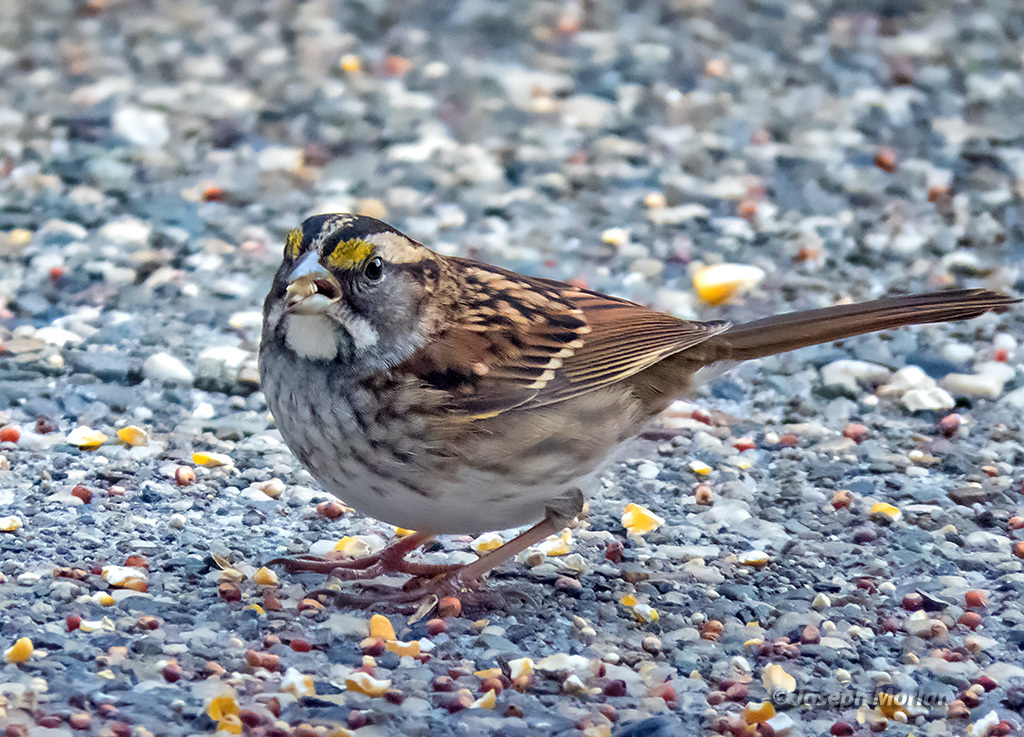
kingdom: Animalia
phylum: Chordata
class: Aves
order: Passeriformes
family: Passerellidae
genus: Zonotrichia
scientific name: Zonotrichia albicollis
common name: White-throated sparrow
